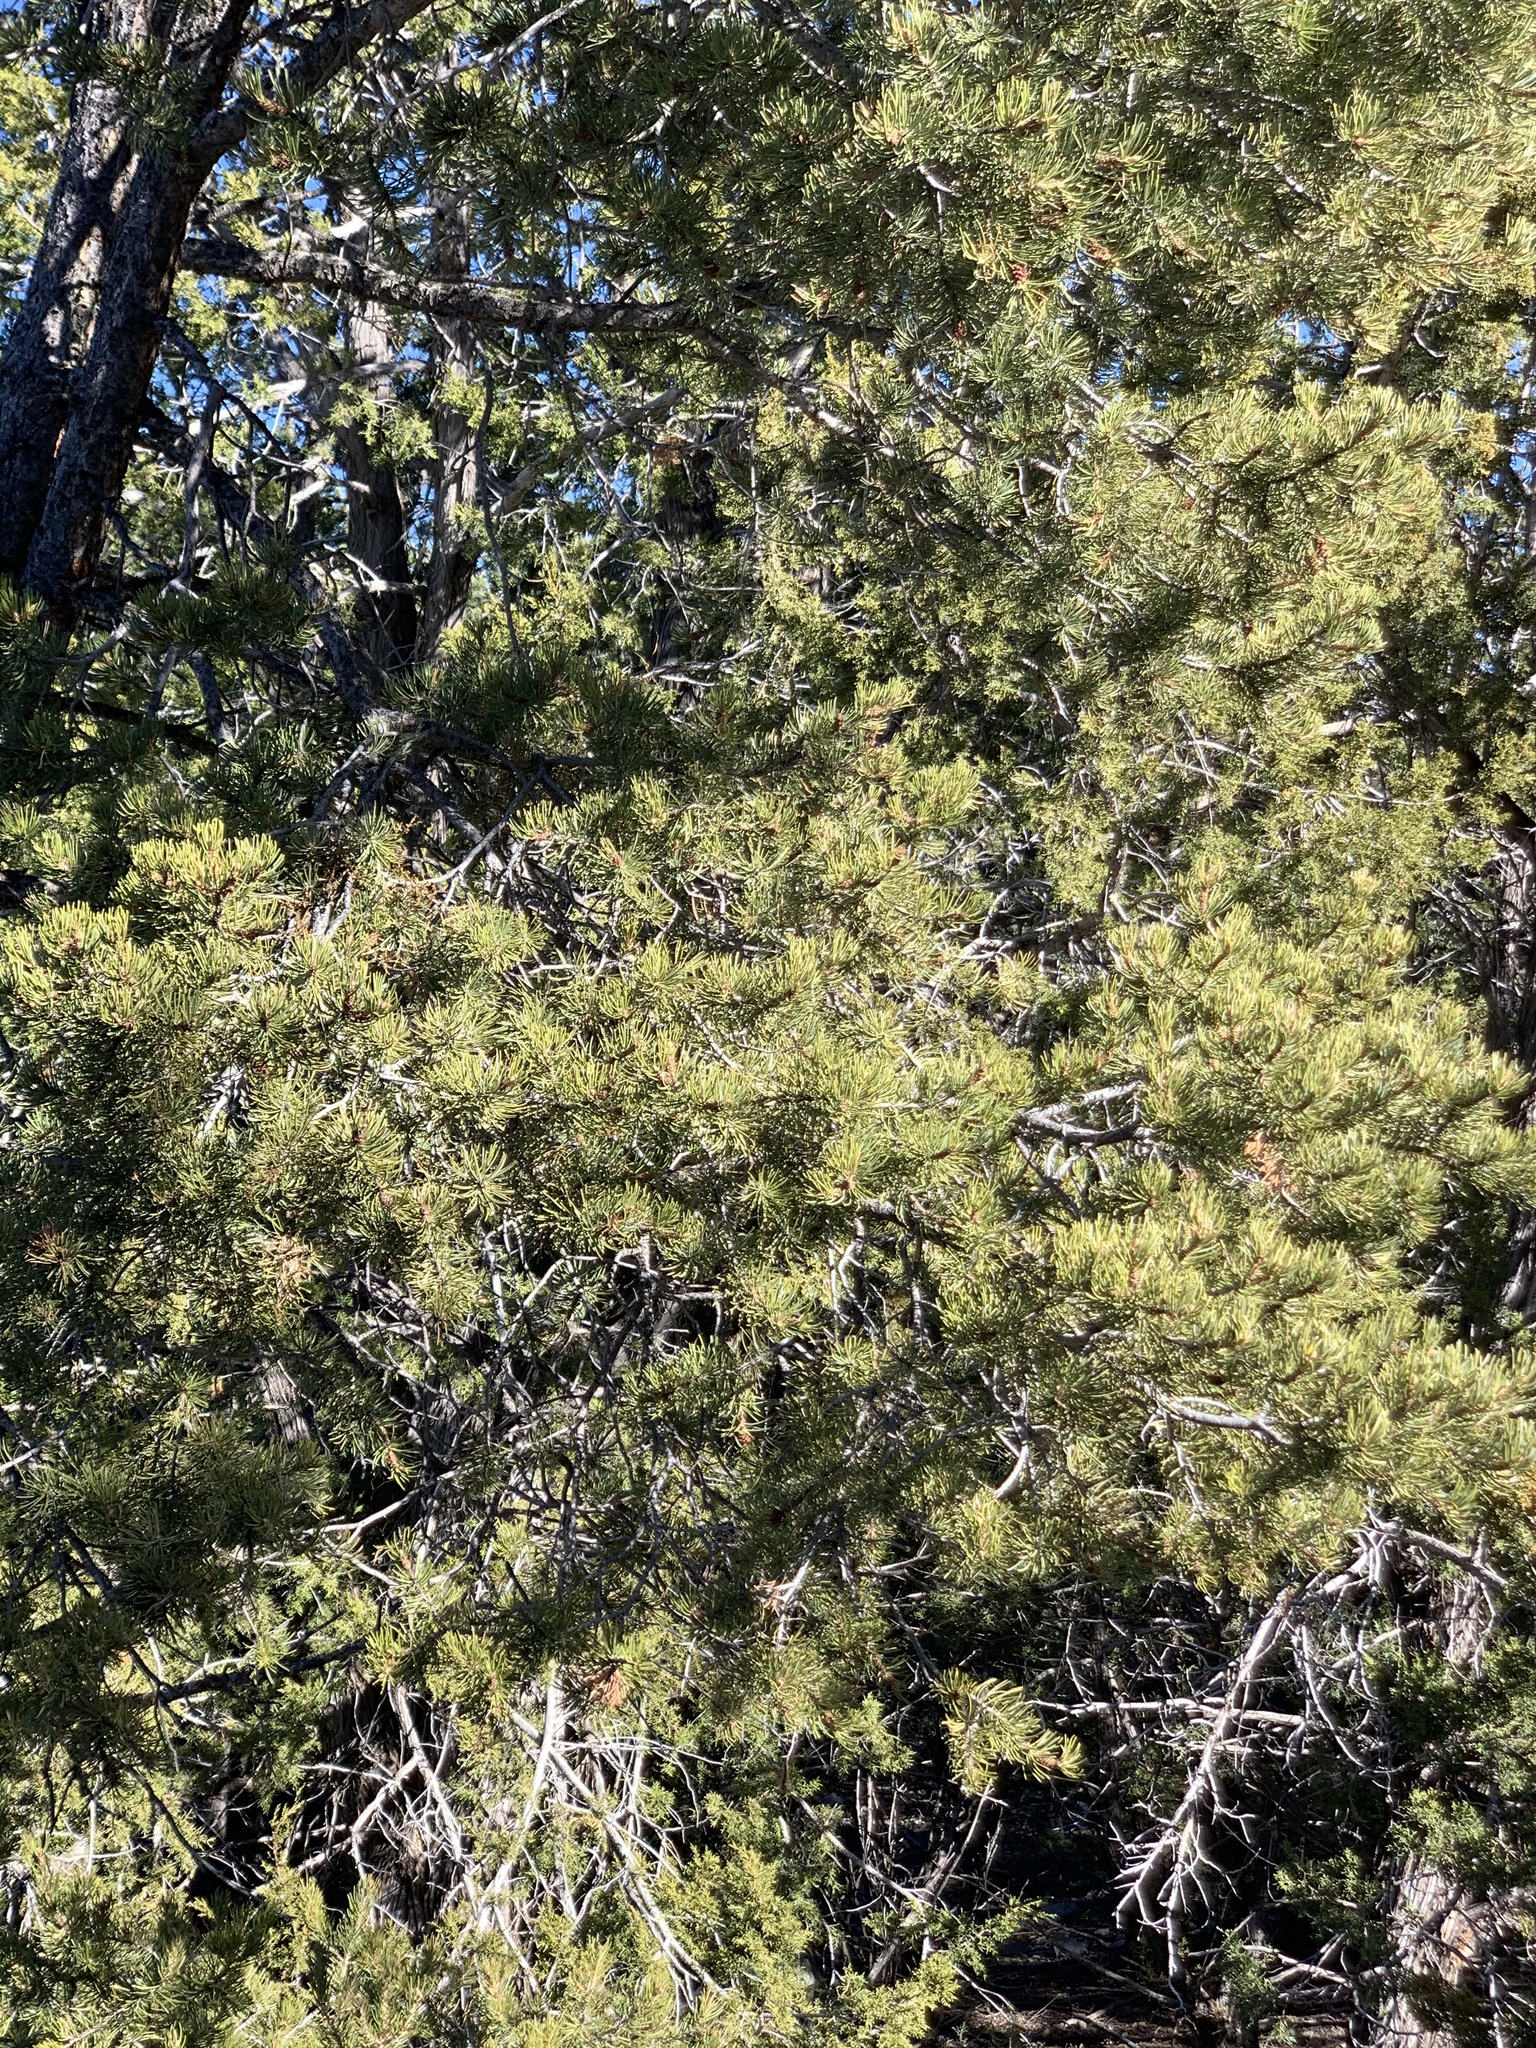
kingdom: Plantae
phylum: Tracheophyta
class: Pinopsida
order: Pinales
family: Pinaceae
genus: Pinus
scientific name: Pinus edulis
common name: Colorado pinyon
